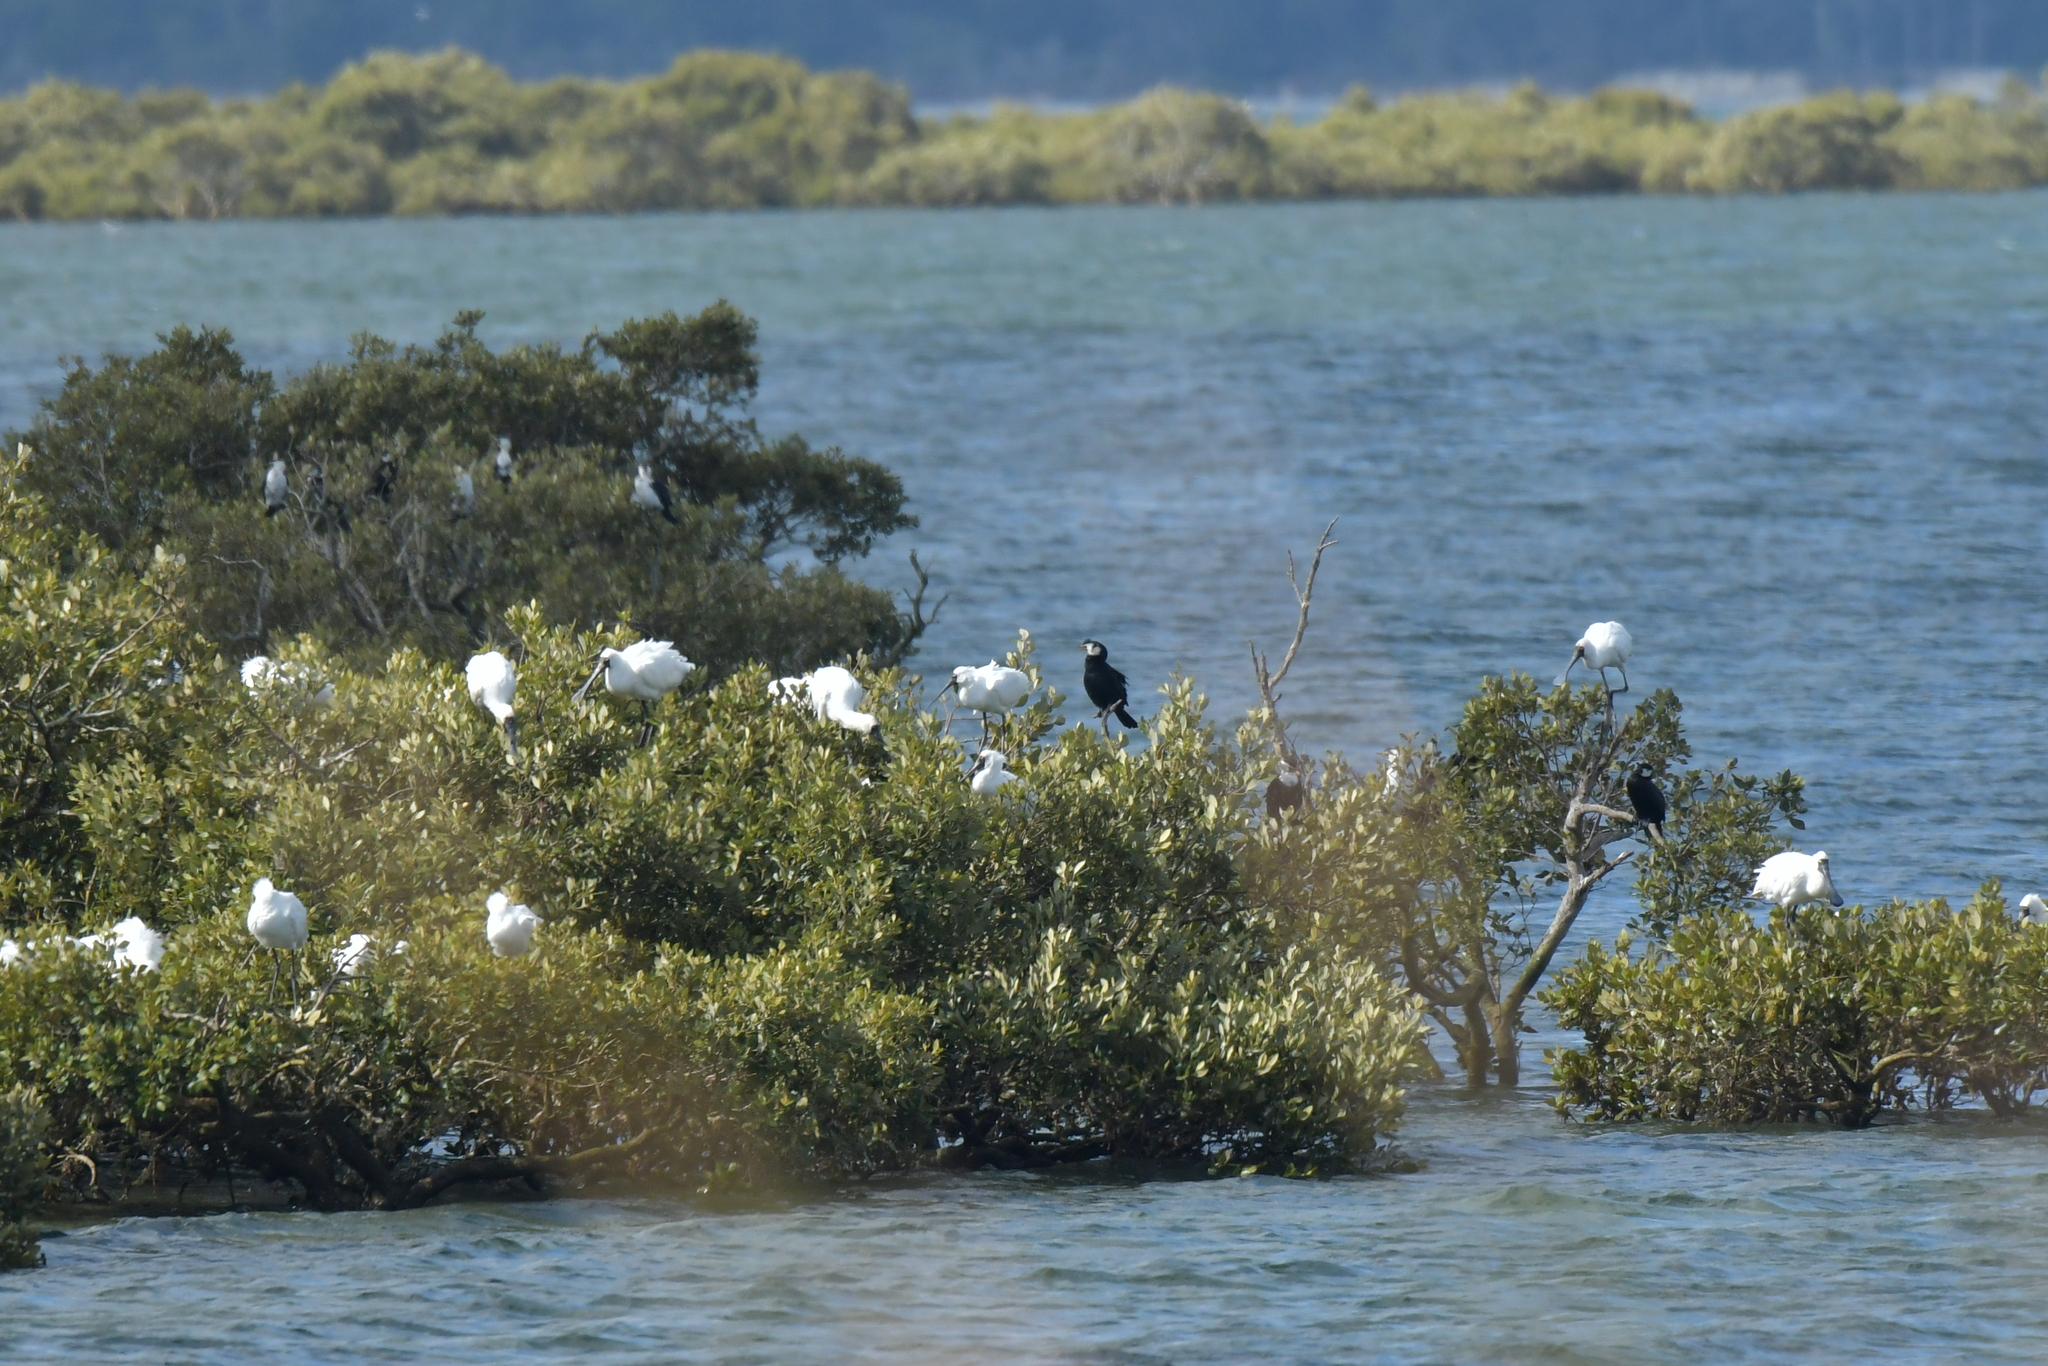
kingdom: Animalia
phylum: Chordata
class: Aves
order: Suliformes
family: Phalacrocoracidae
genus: Microcarbo
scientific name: Microcarbo melanoleucos
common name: Little pied cormorant
